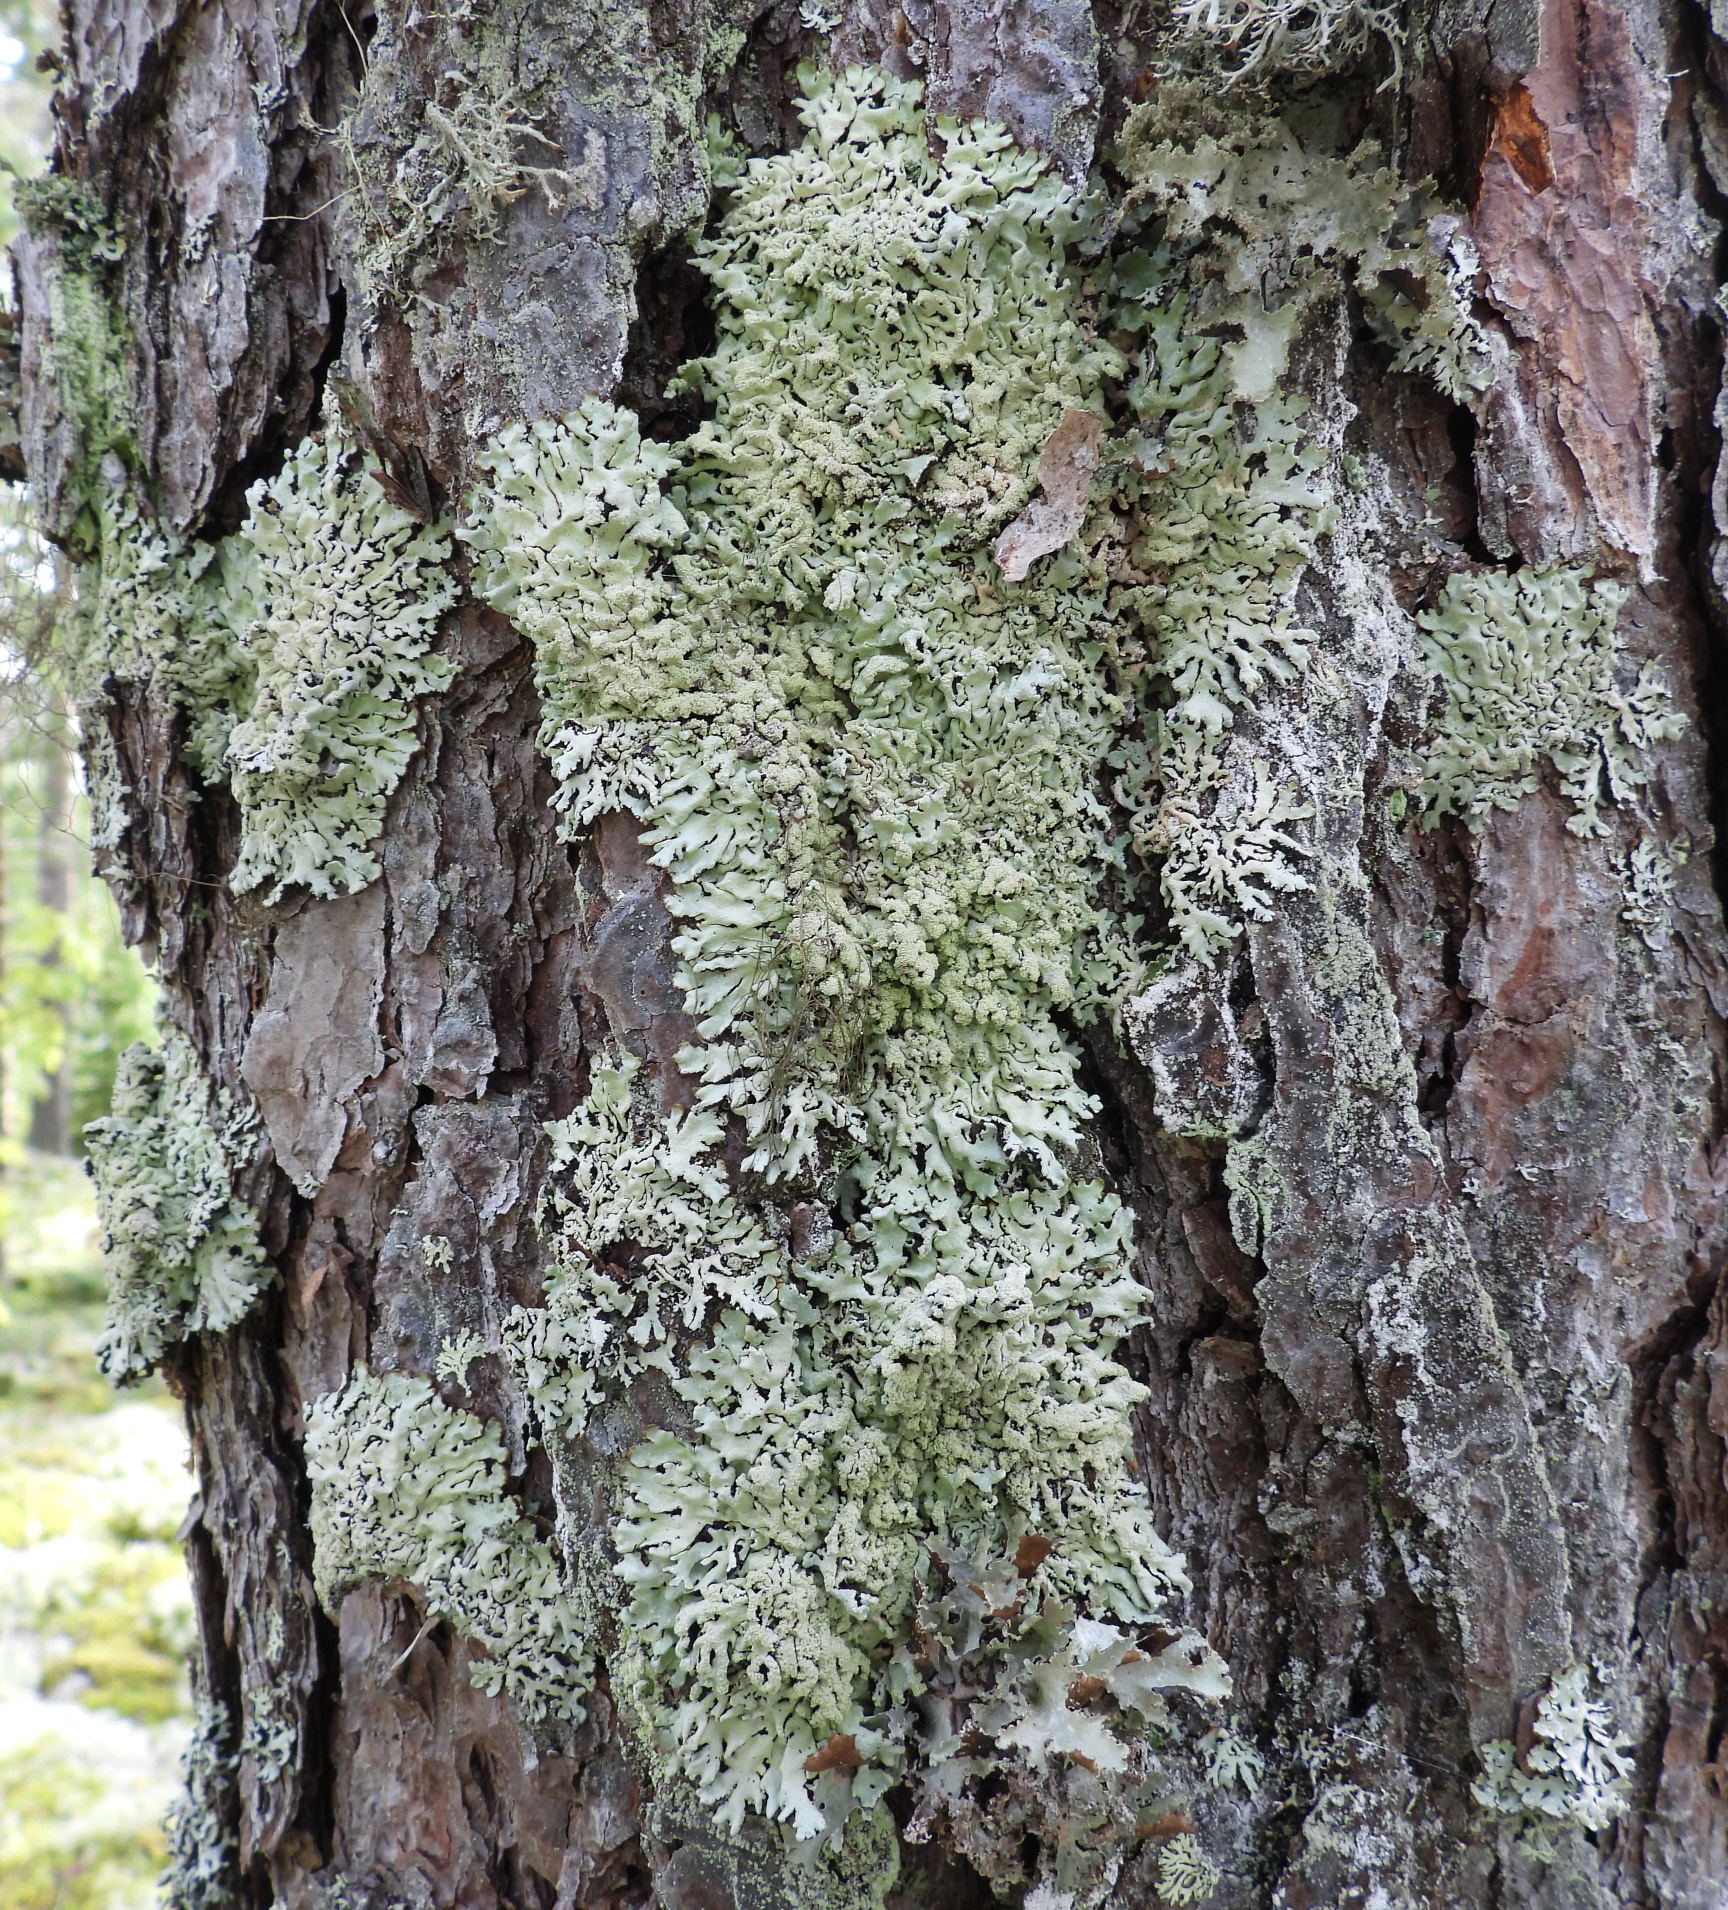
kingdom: Fungi
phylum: Ascomycota
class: Lecanoromycetes
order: Lecanorales
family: Parmeliaceae
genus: Hypogymnia
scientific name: Hypogymnia farinacea
